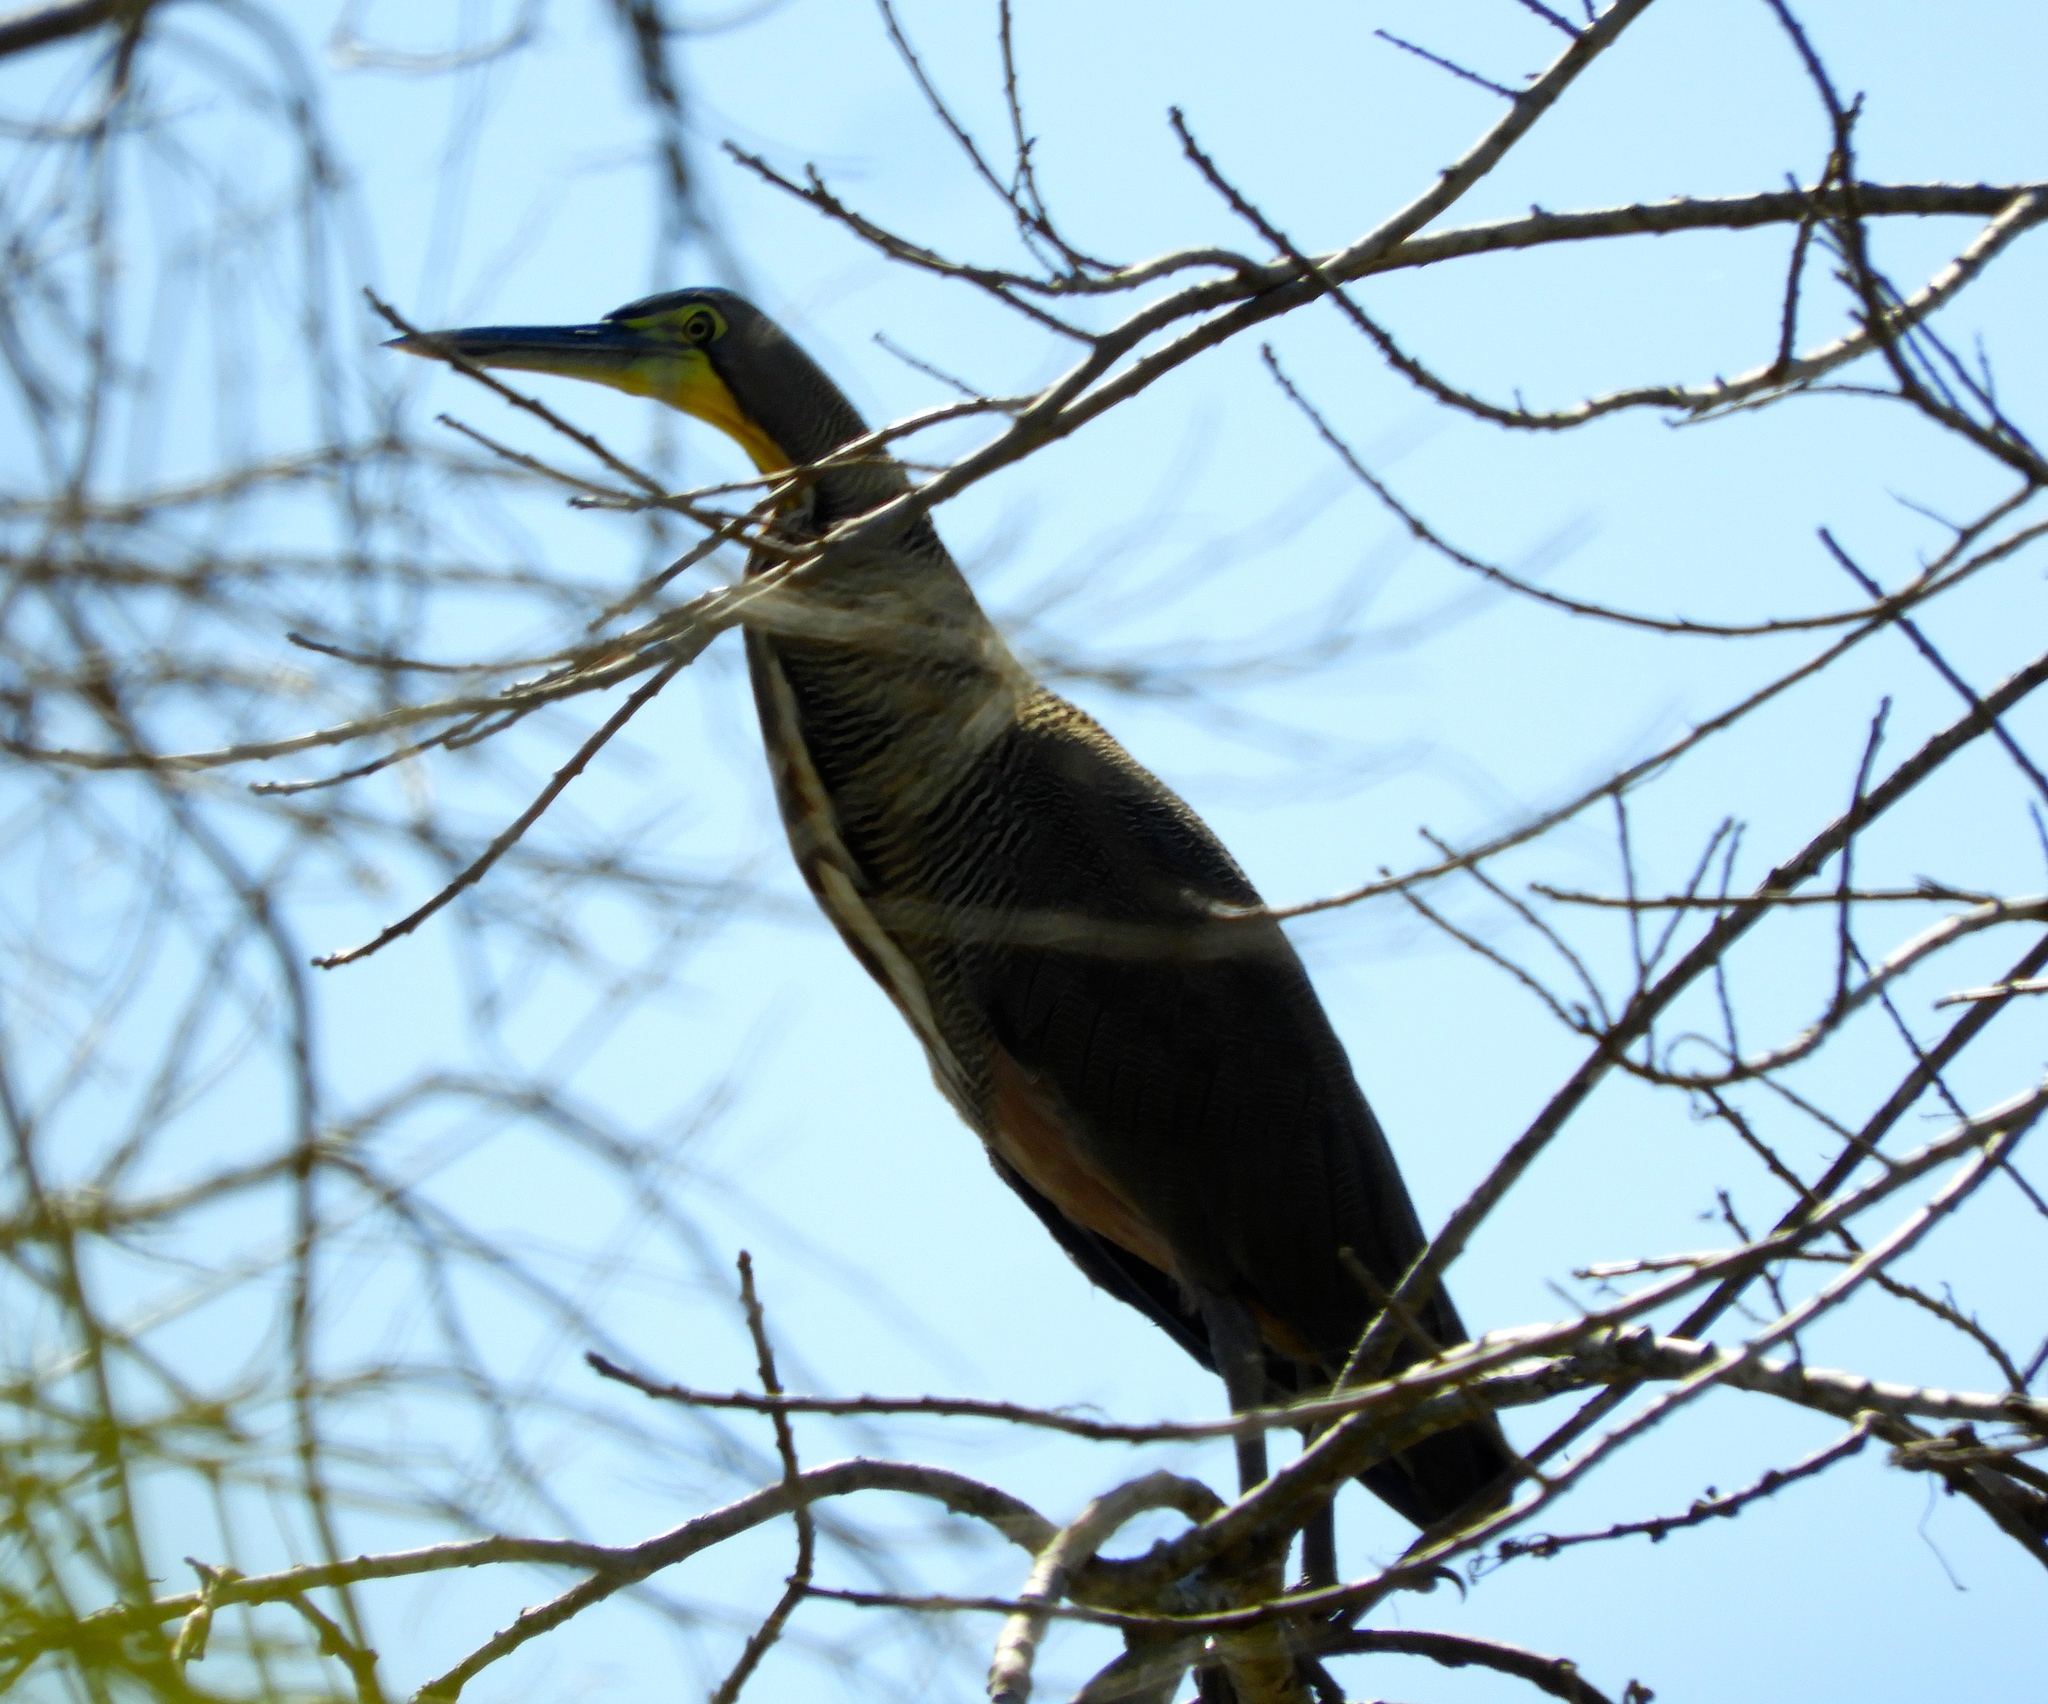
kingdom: Animalia
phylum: Chordata
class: Aves
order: Pelecaniformes
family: Ardeidae
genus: Tigrisoma
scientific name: Tigrisoma mexicanum
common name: Bare-throated tiger-heron
